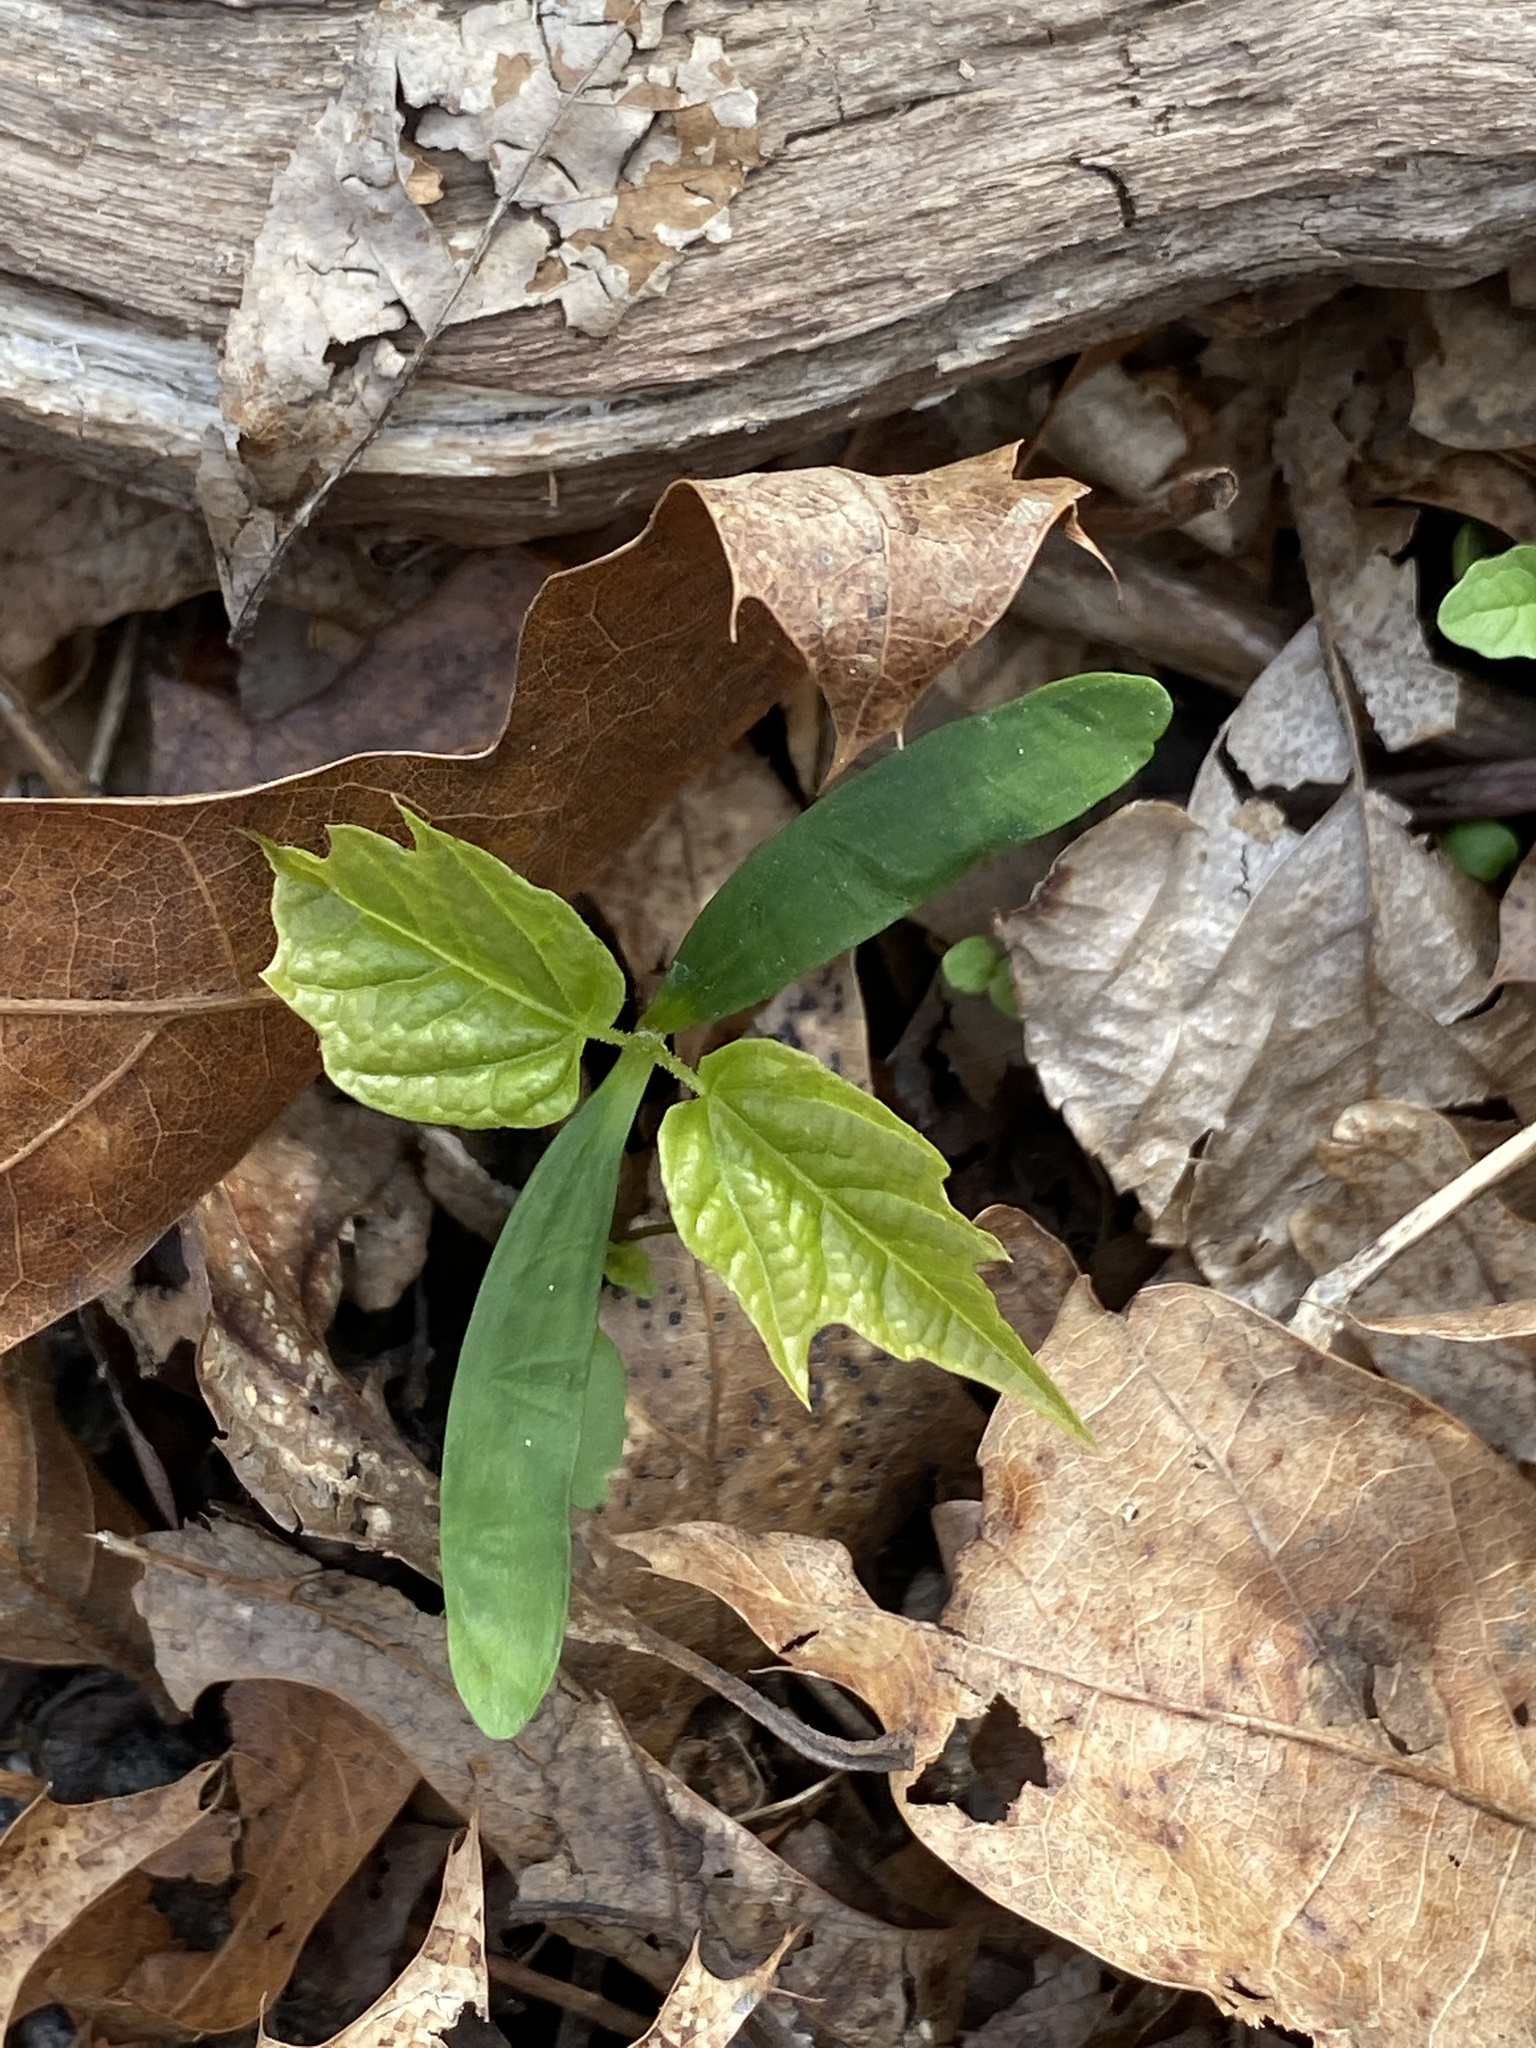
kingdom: Plantae
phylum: Tracheophyta
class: Magnoliopsida
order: Sapindales
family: Sapindaceae
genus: Acer
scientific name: Acer rubrum
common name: Red maple
